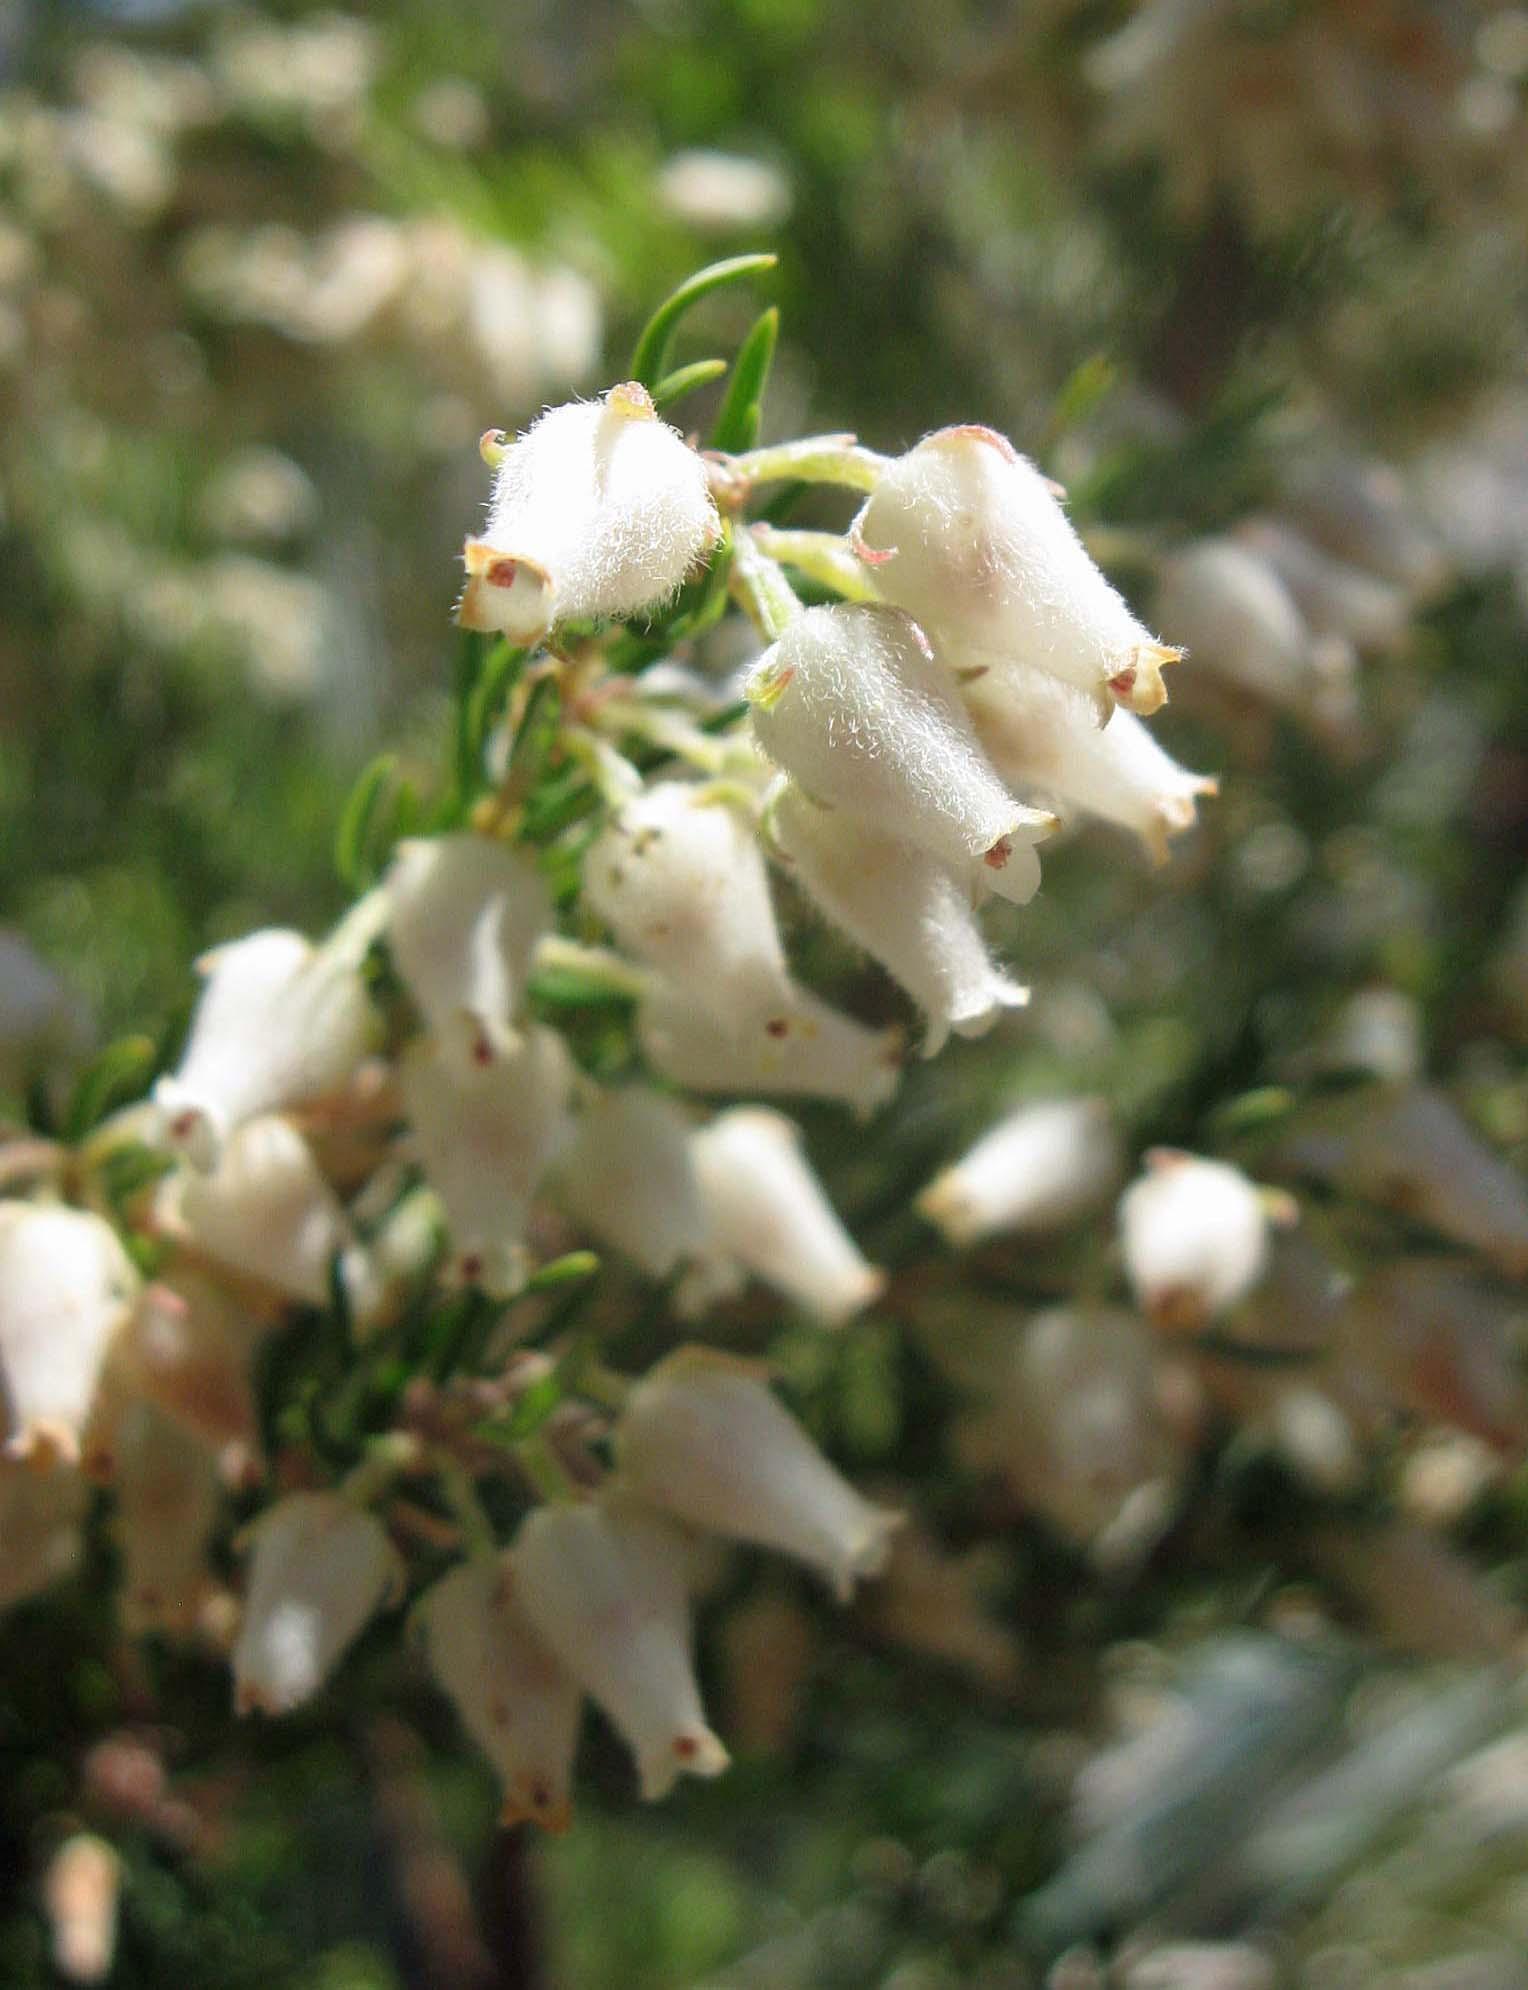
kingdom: Plantae
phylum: Tracheophyta
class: Magnoliopsida
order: Ericales
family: Ericaceae
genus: Erica
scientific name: Erica caffra
